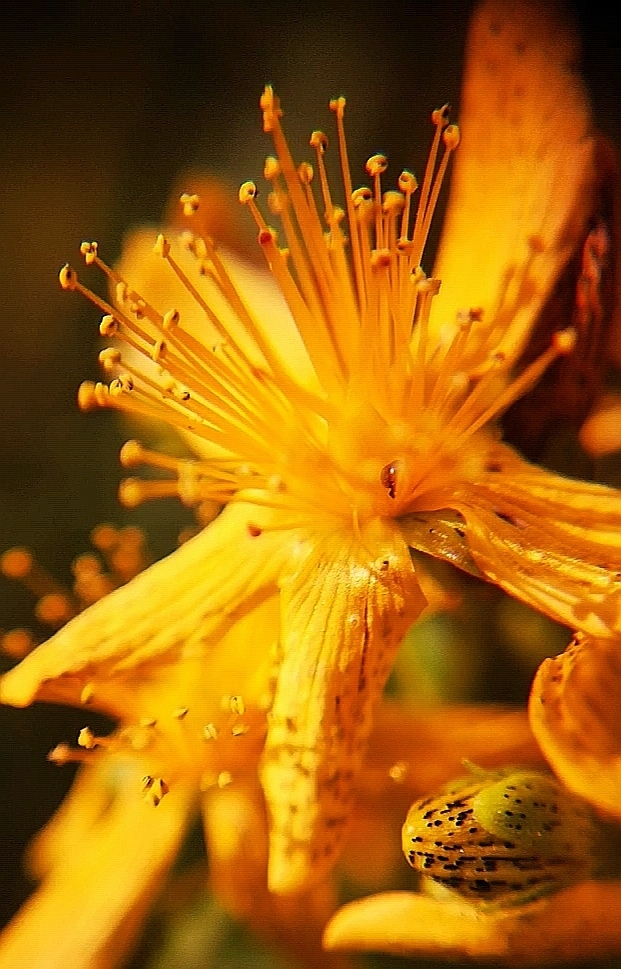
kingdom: Plantae
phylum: Tracheophyta
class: Magnoliopsida
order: Malpighiales
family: Hypericaceae
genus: Hypericum
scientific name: Hypericum maculatum
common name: Imperforate st. john's-wort
